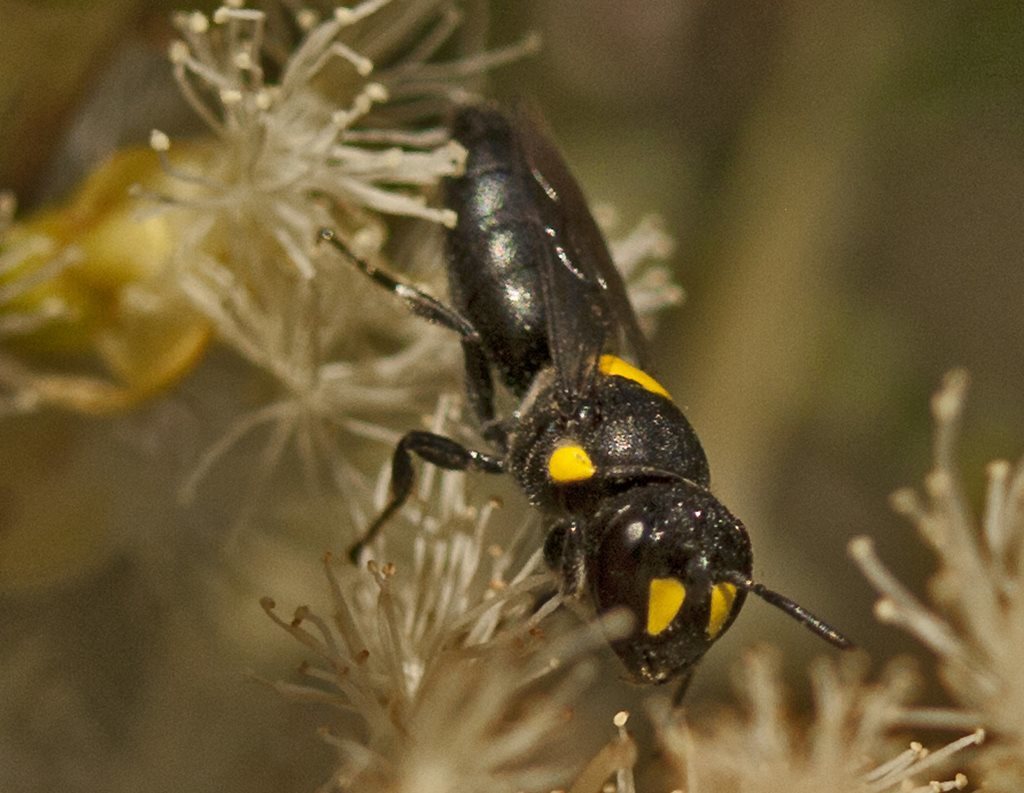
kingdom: Animalia
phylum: Arthropoda
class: Insecta
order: Hymenoptera
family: Colletidae
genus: Hylaeus
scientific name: Hylaeus rotundiceps
